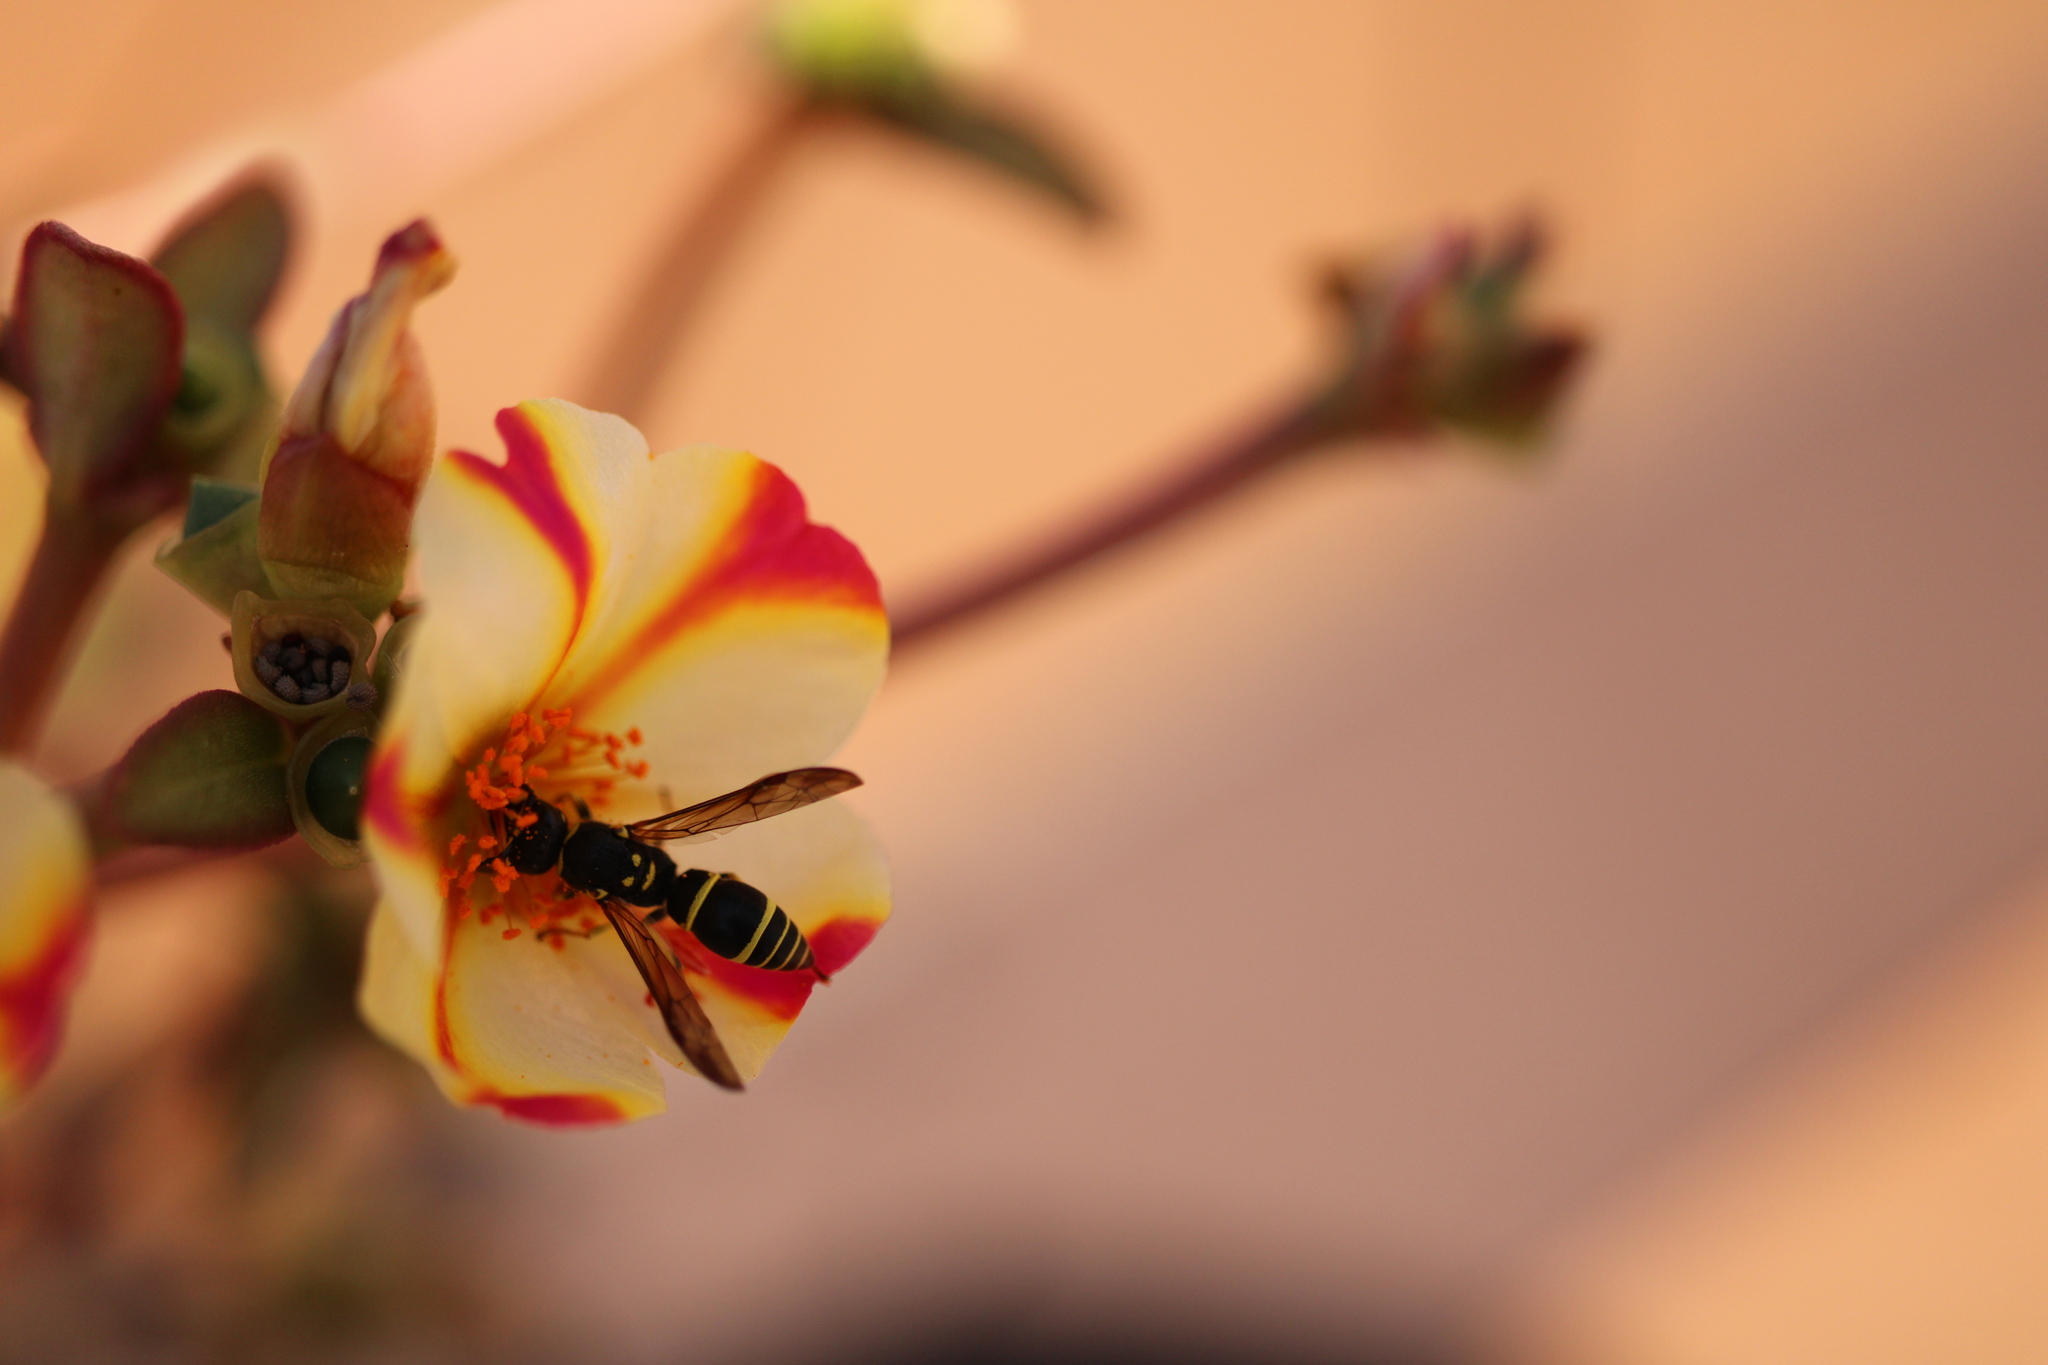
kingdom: Animalia
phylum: Arthropoda
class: Insecta
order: Hymenoptera
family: Vespidae
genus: Ancistrocerus
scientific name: Ancistrocerus adiabatus
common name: Bramble mason wasp
